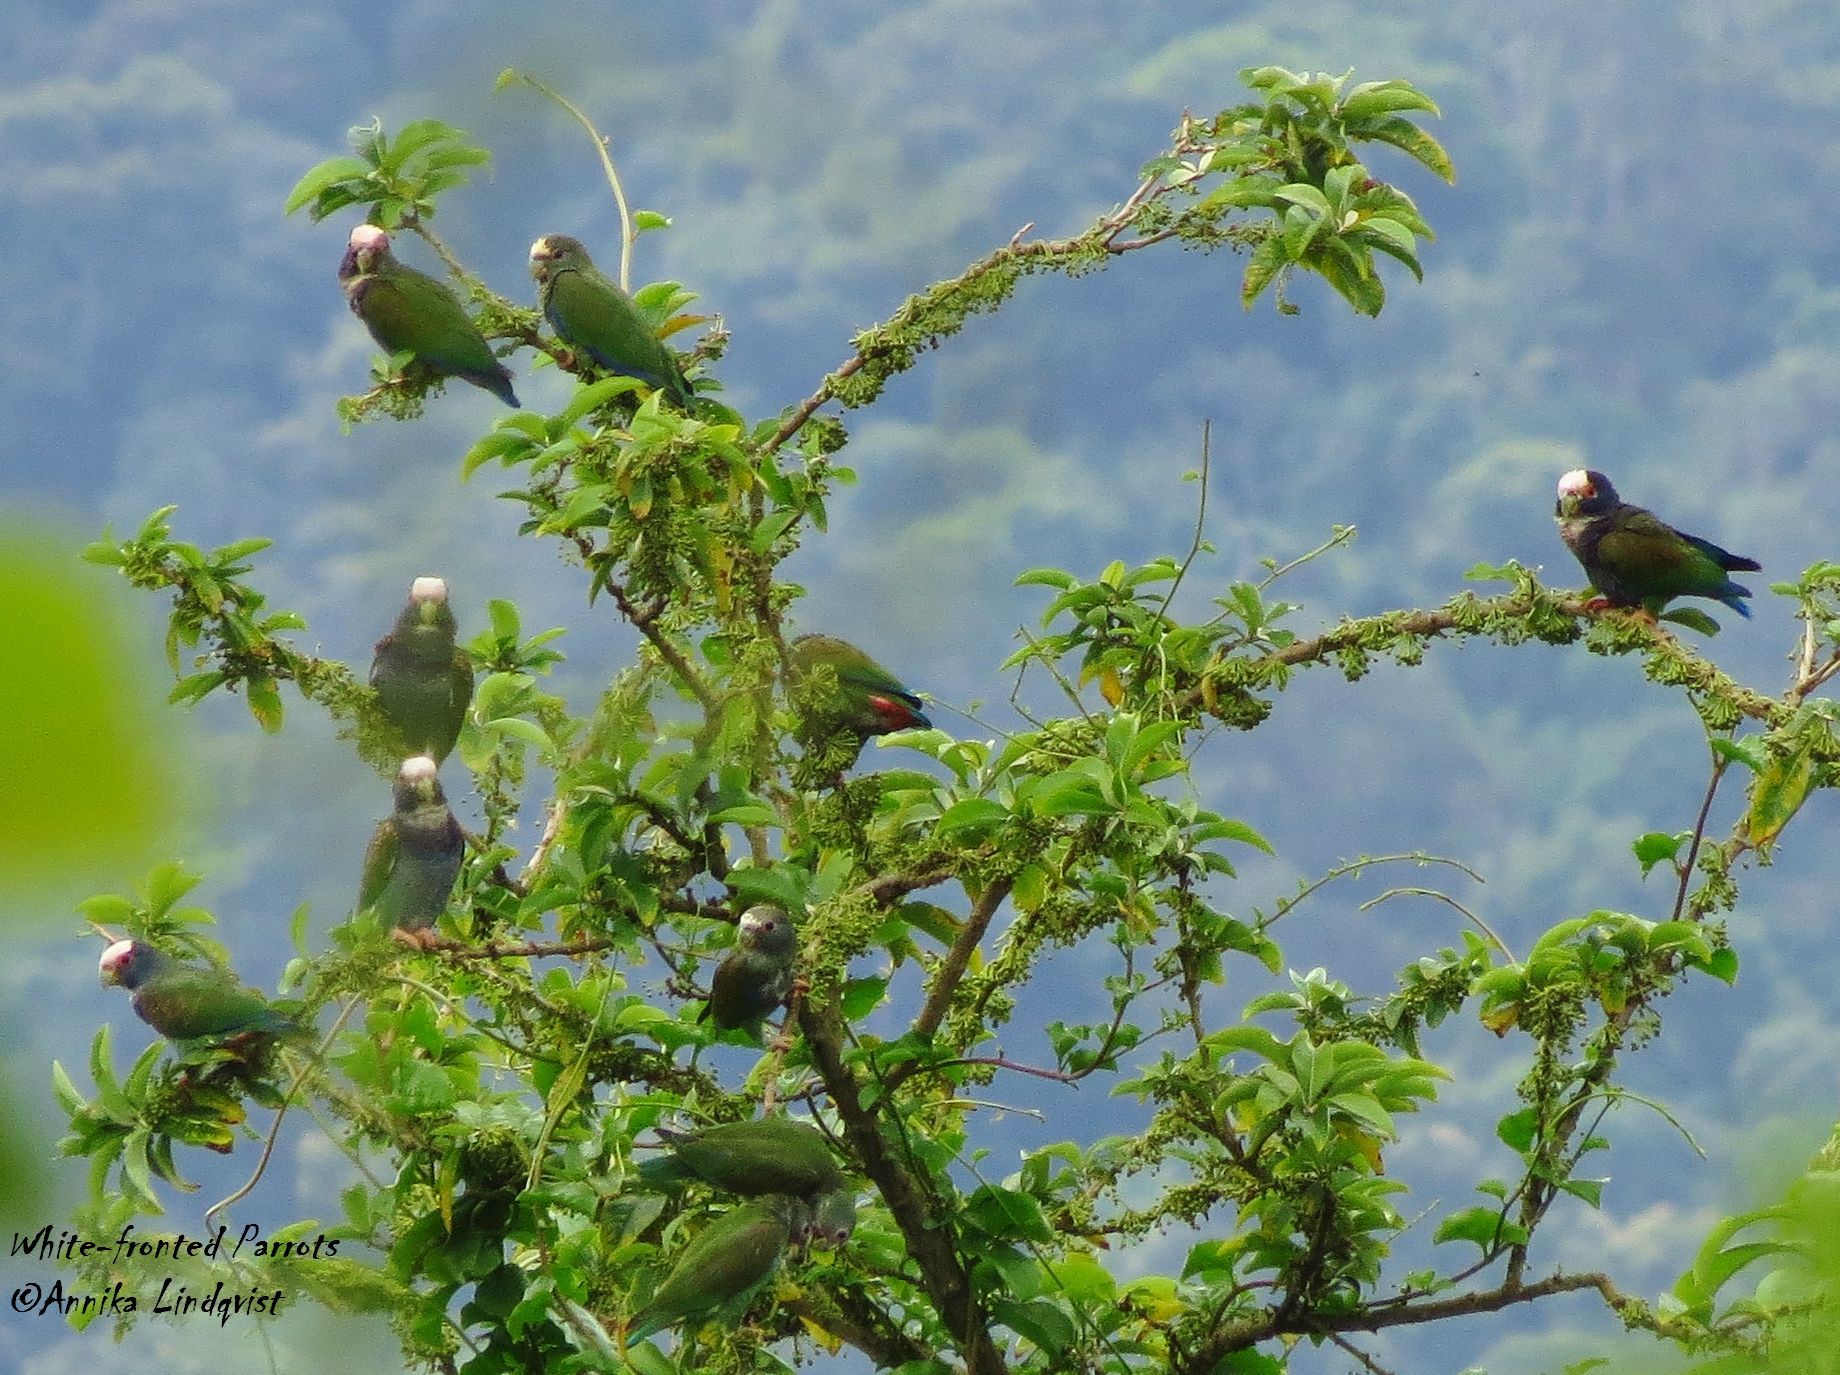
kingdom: Animalia
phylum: Chordata
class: Aves
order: Psittaciformes
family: Psittacidae
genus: Pionus
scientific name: Pionus senilis
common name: White-crowned parrot
